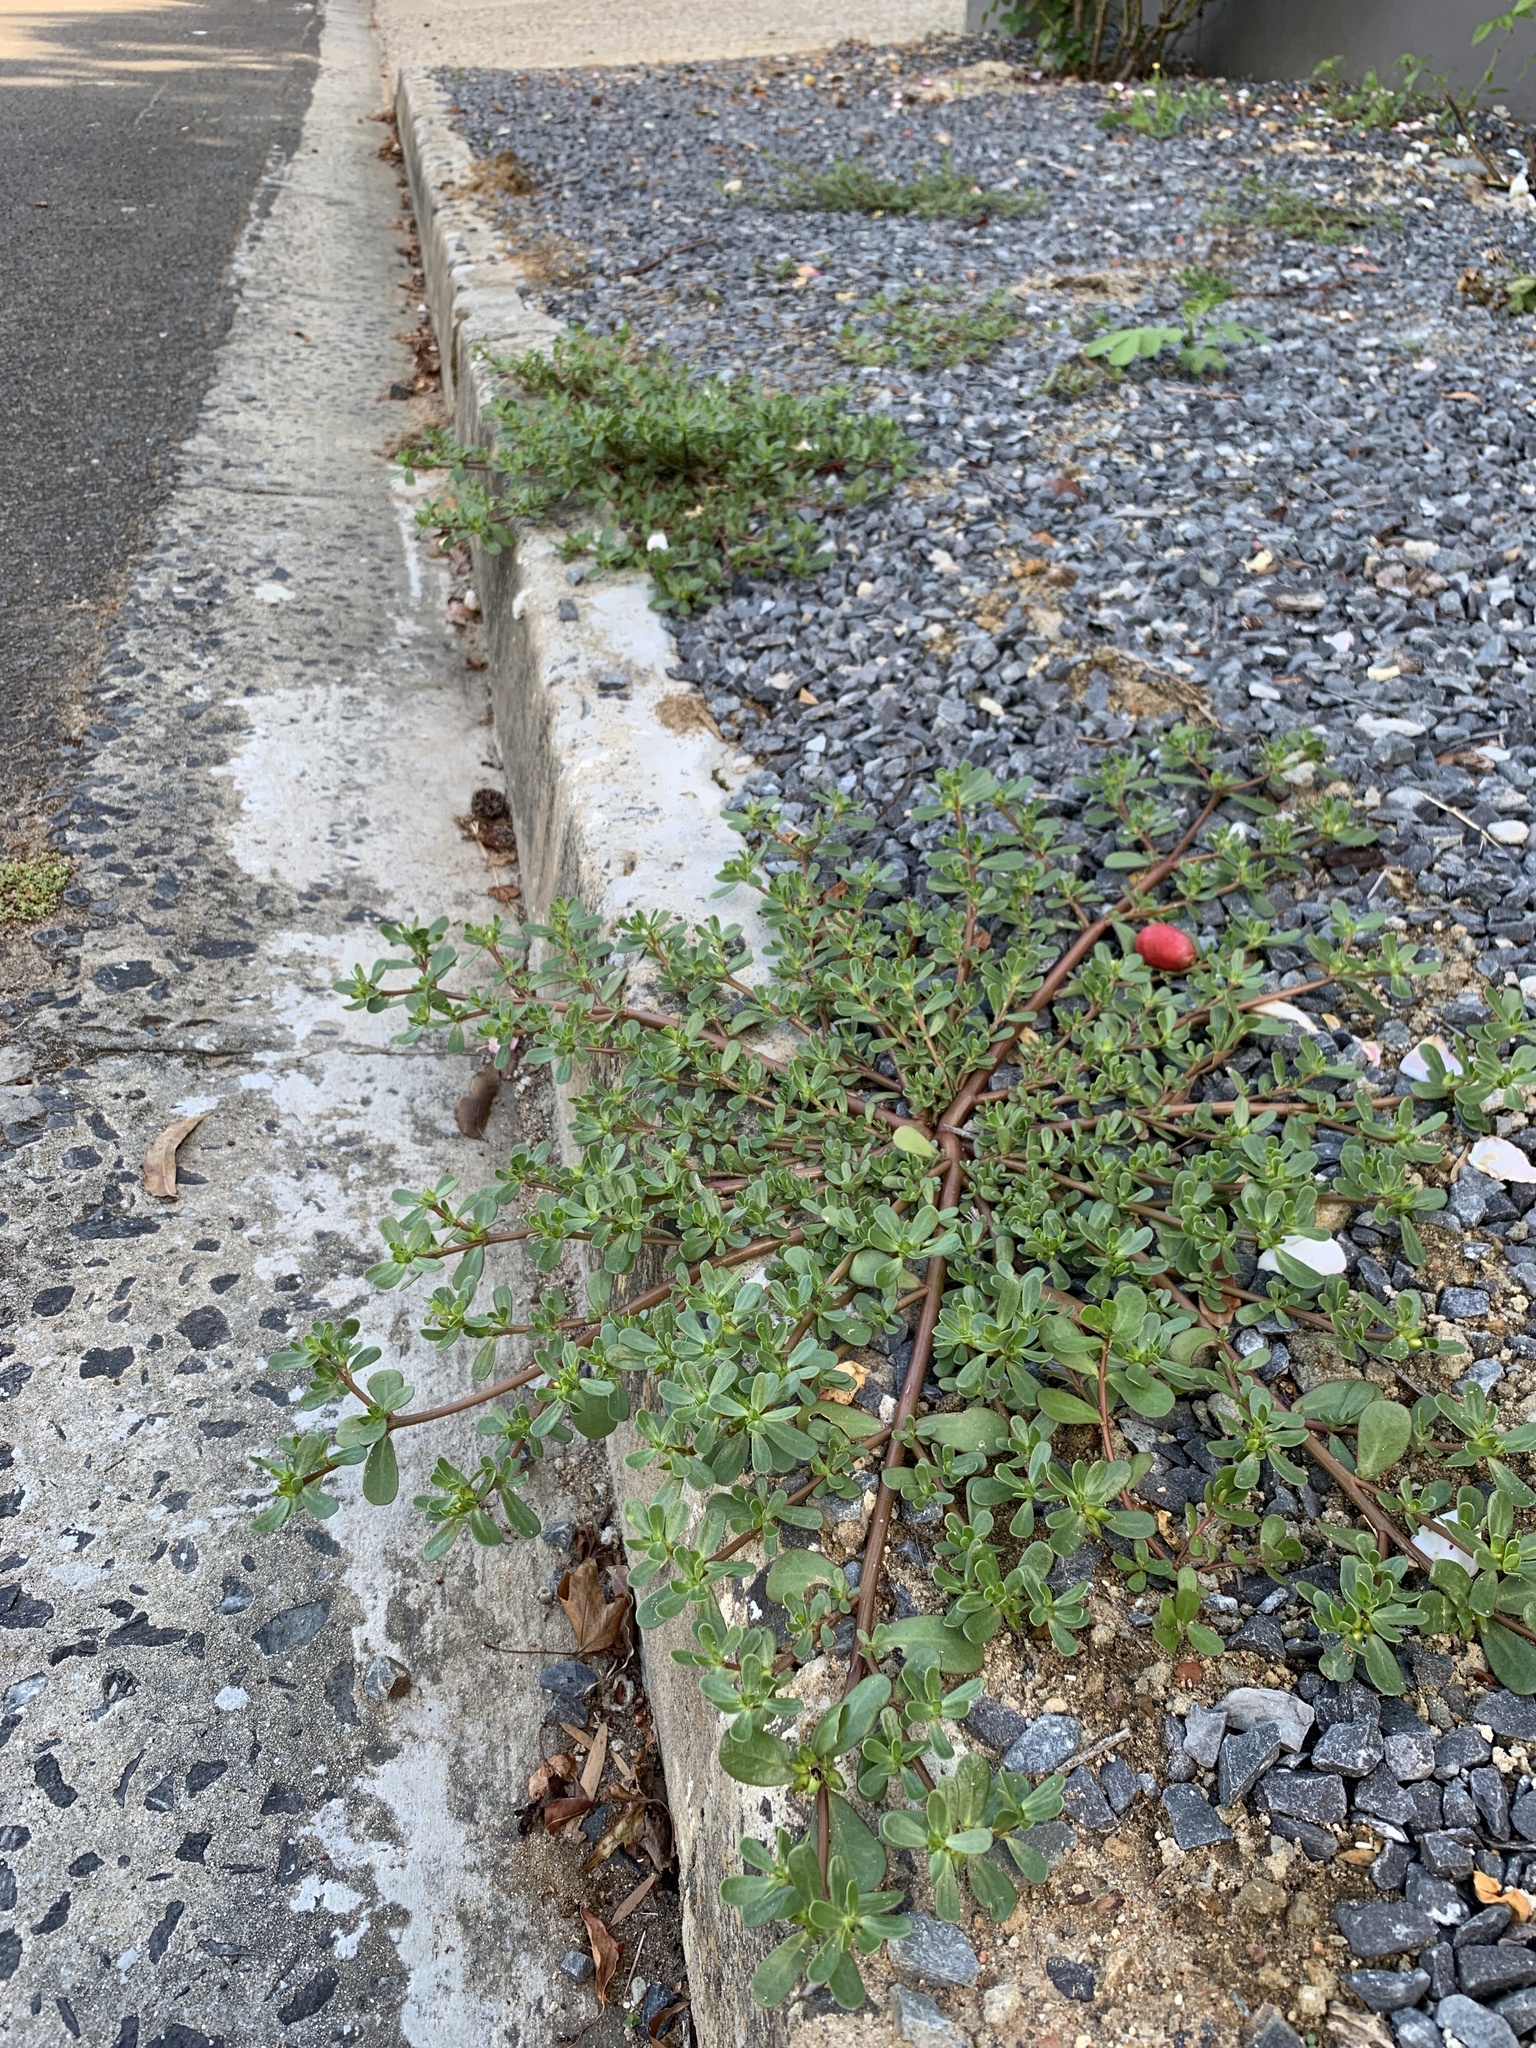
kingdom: Plantae
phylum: Tracheophyta
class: Magnoliopsida
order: Caryophyllales
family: Portulacaceae
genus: Portulaca
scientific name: Portulaca oleracea
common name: Common purslane
